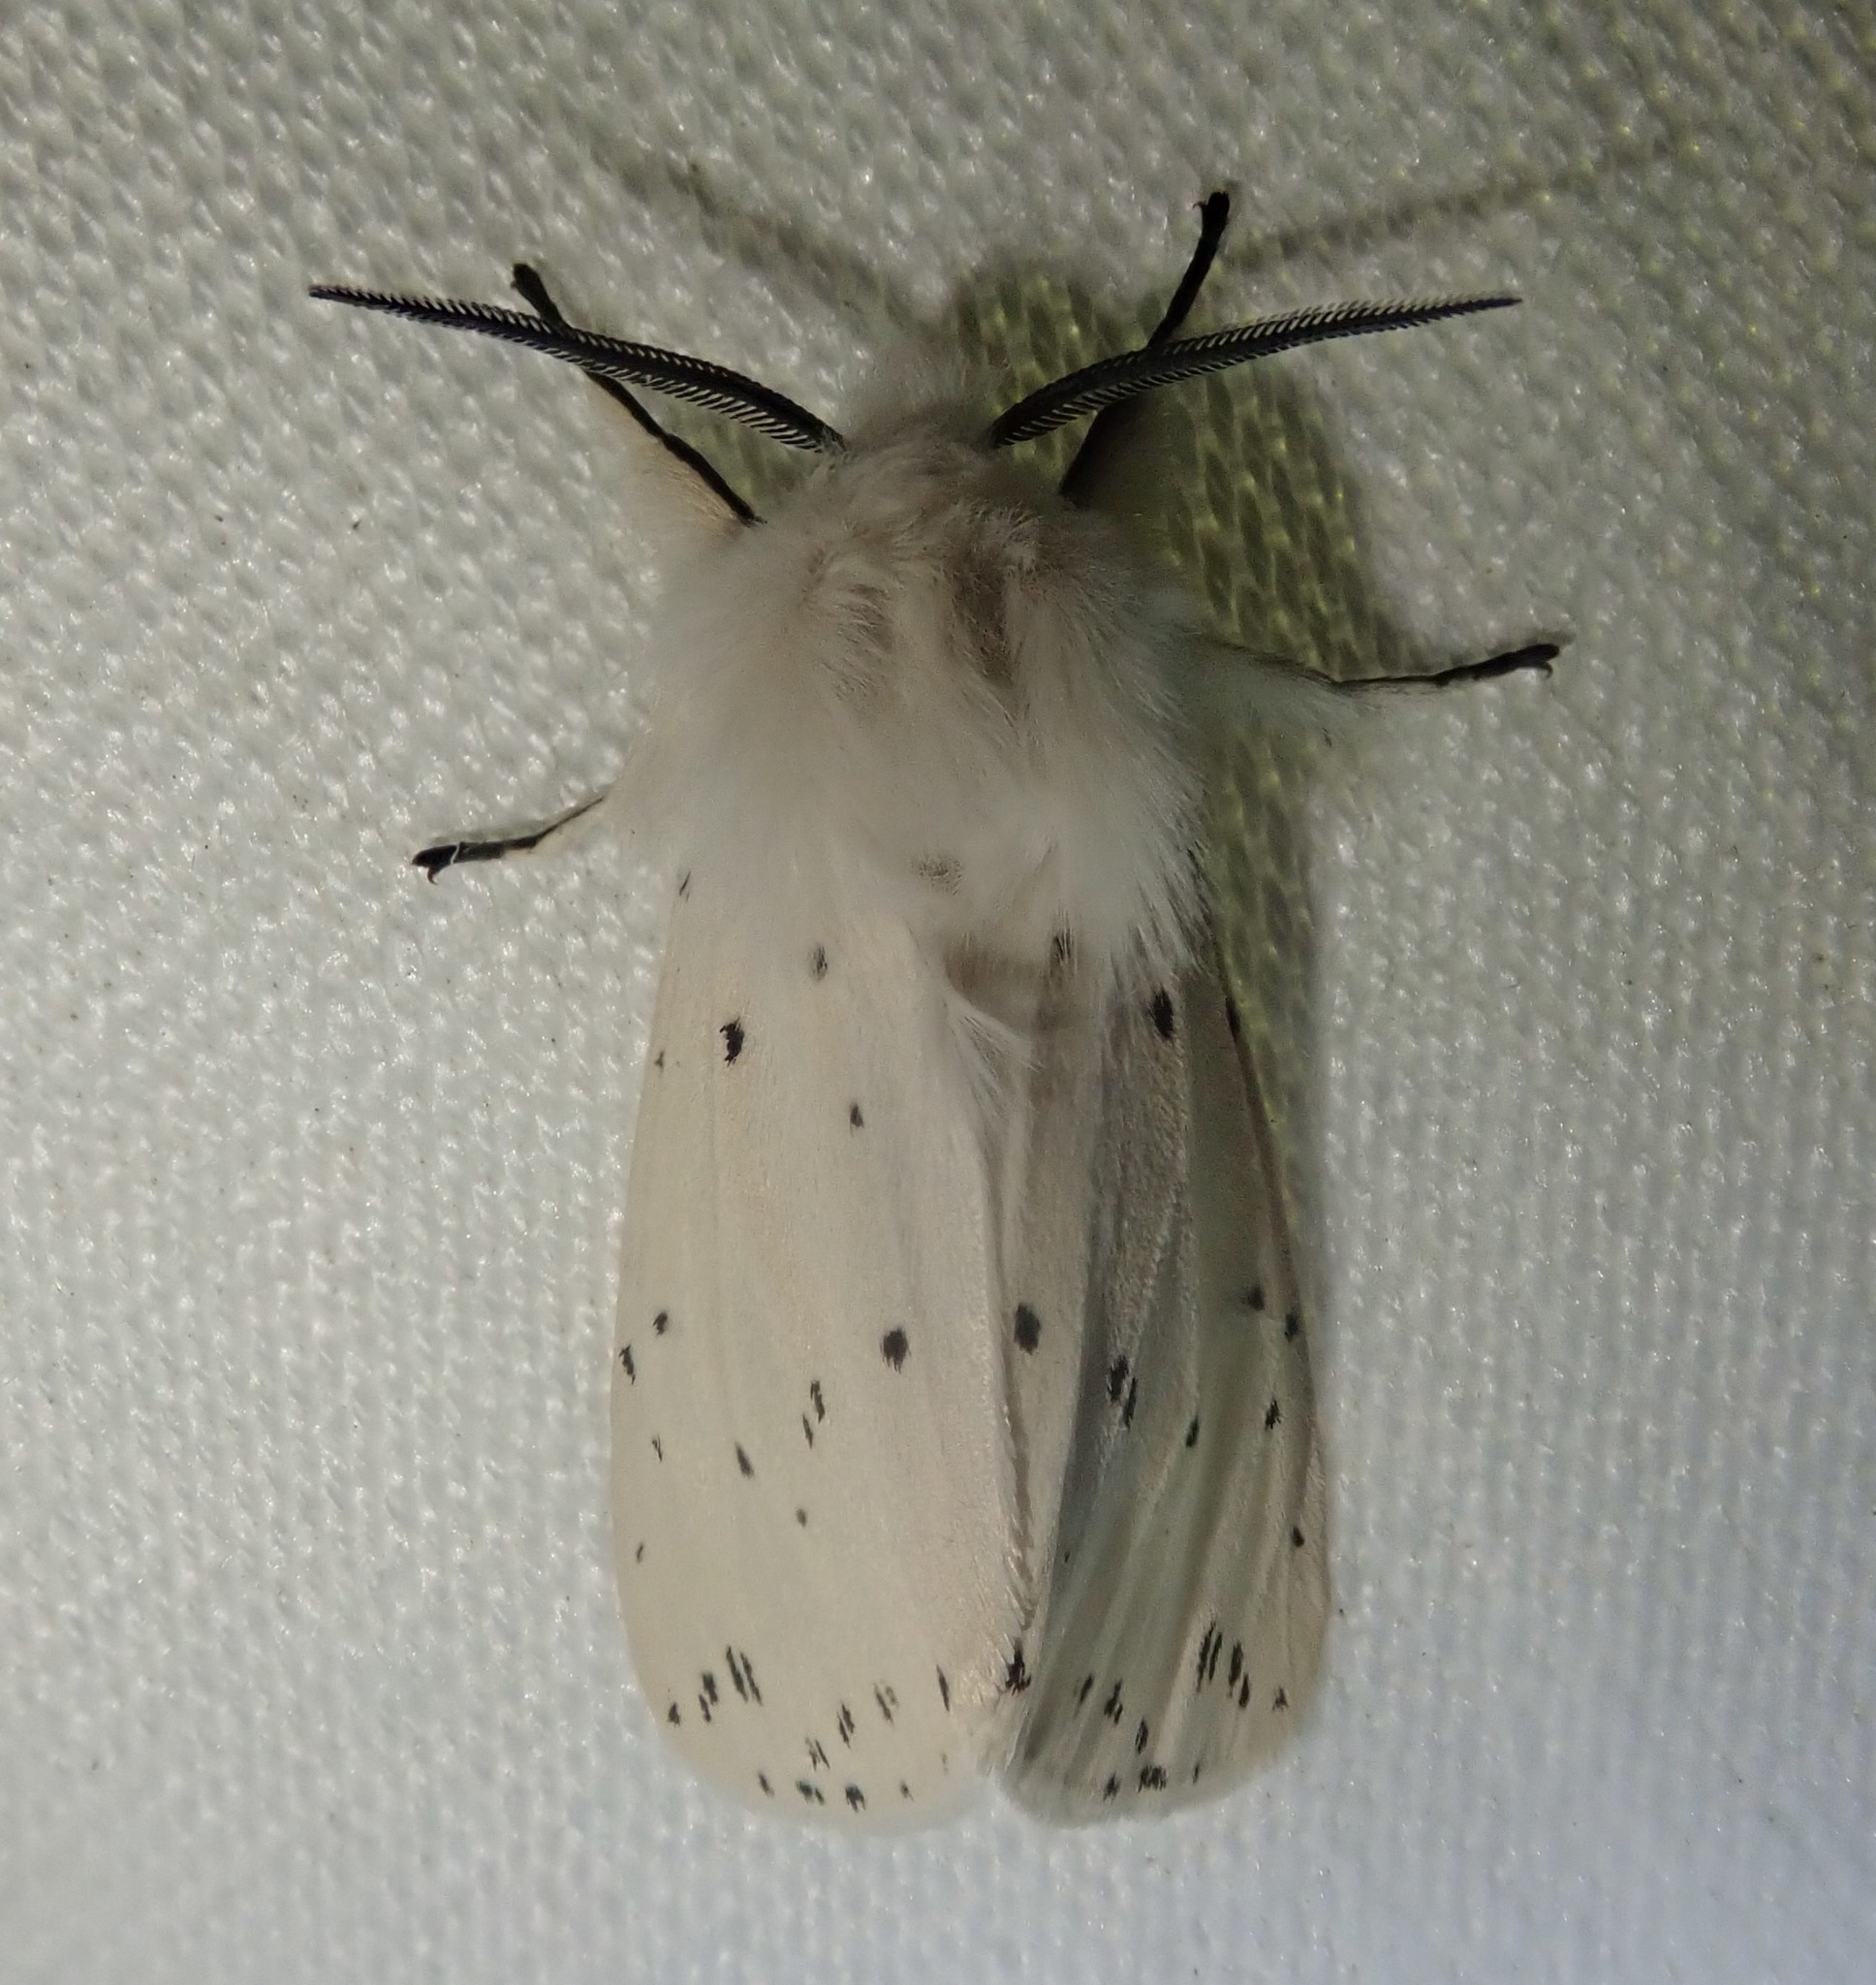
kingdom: Animalia
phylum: Arthropoda
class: Insecta
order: Lepidoptera
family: Erebidae
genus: Spilosoma
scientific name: Spilosoma lubricipeda
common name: White ermine
